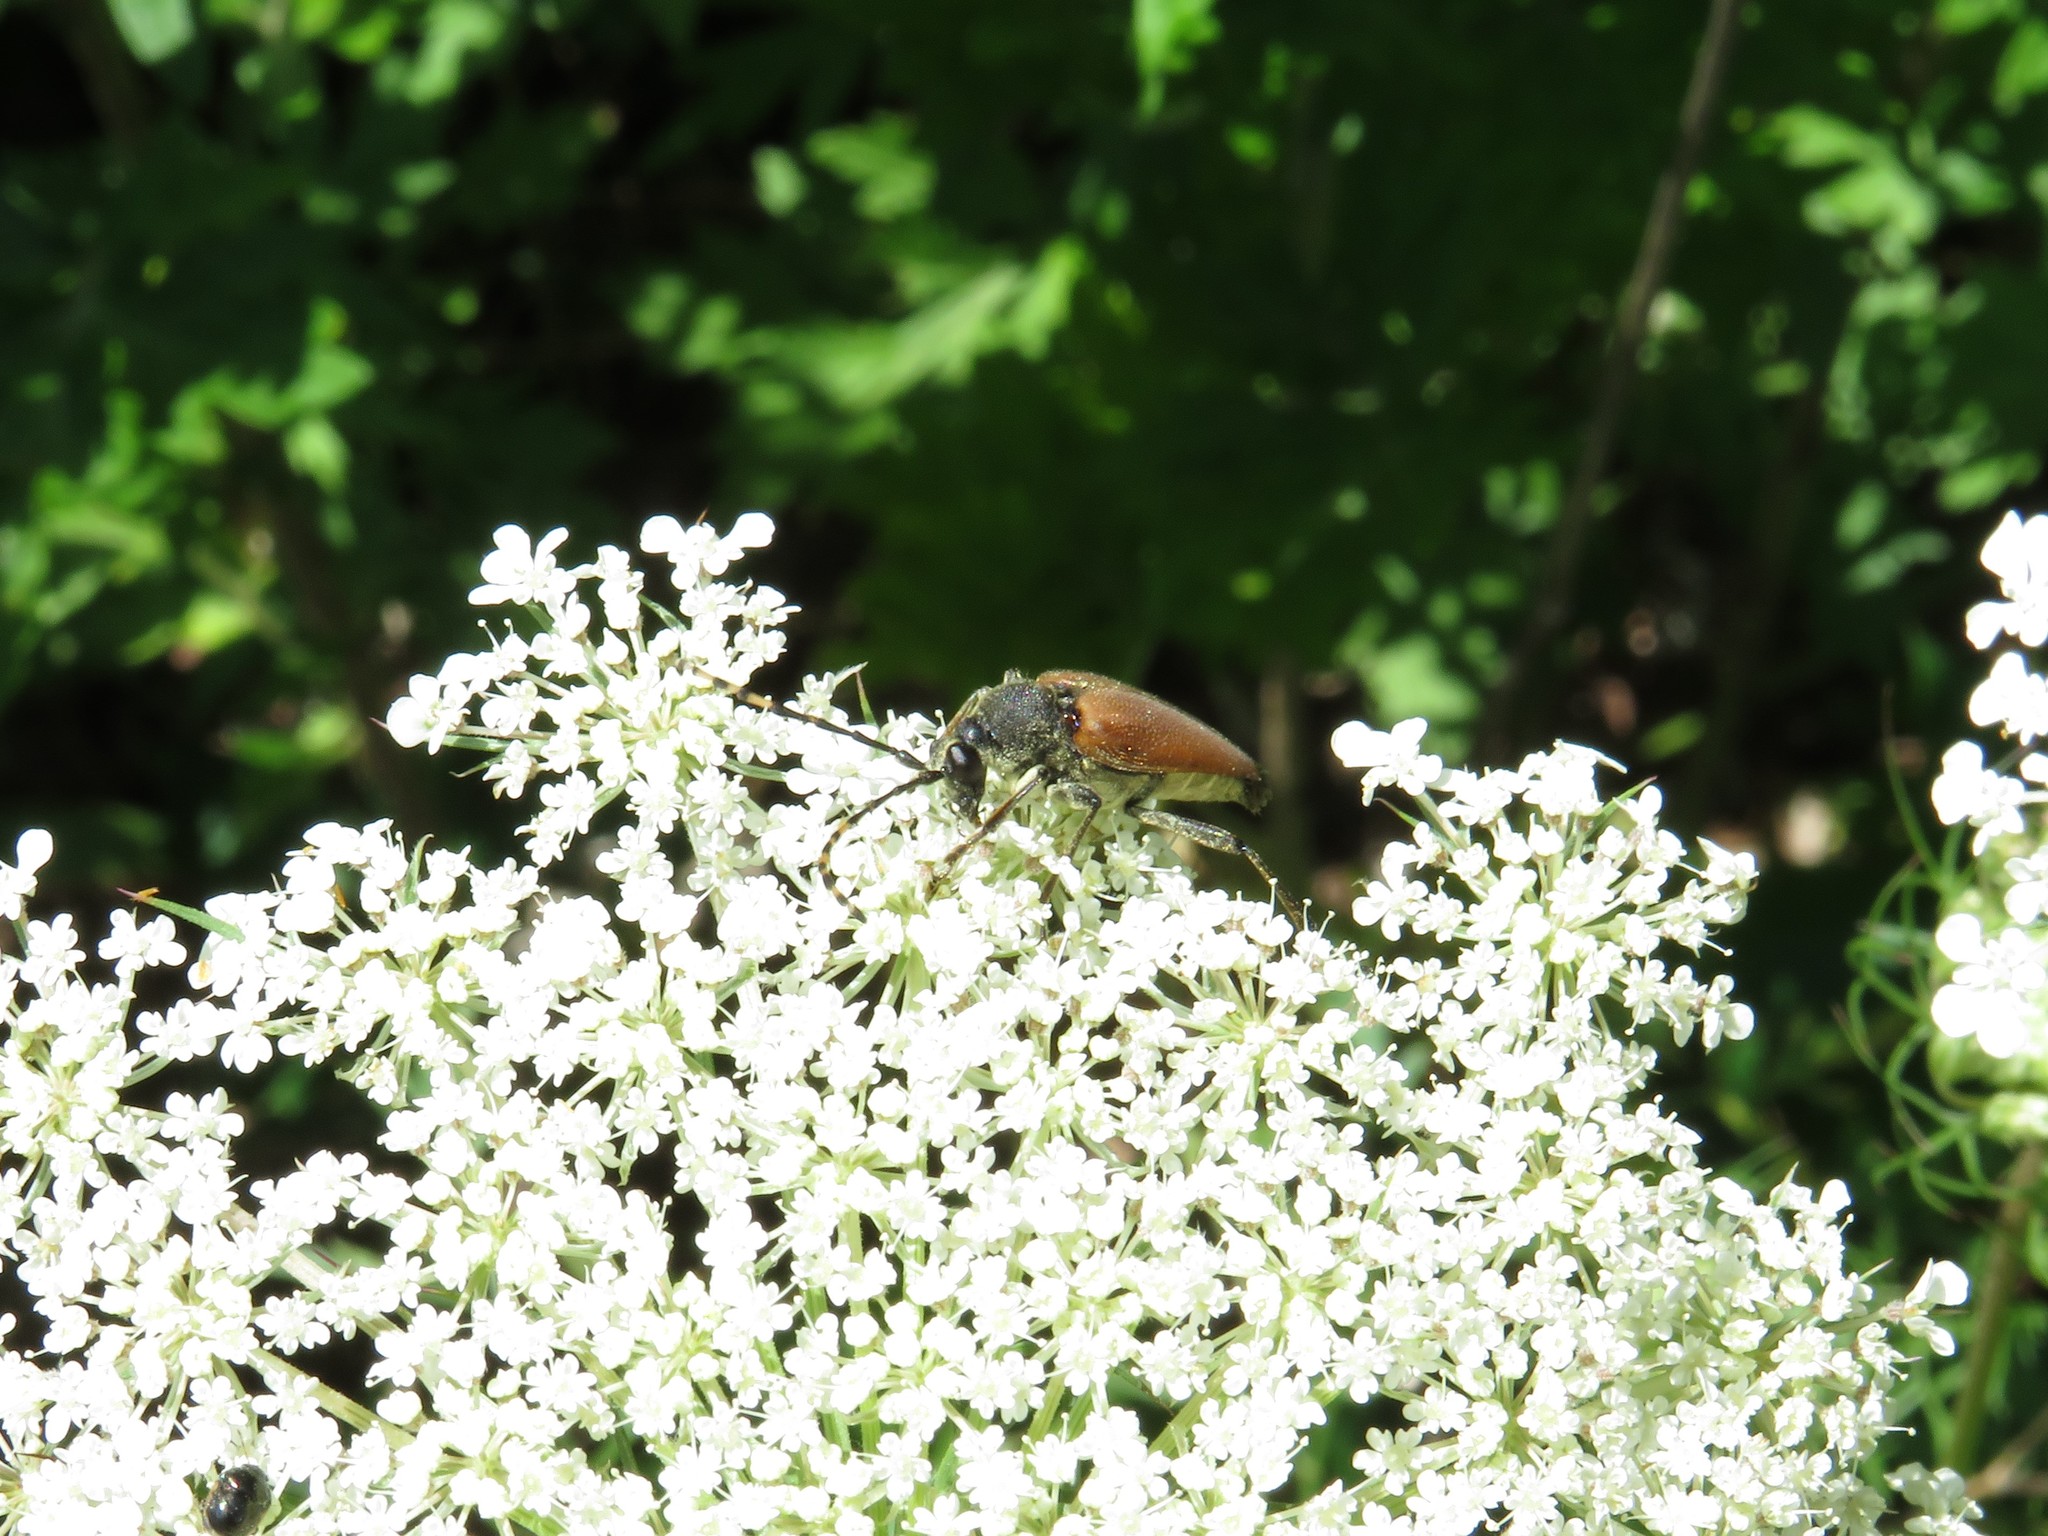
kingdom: Animalia
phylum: Arthropoda
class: Insecta
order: Coleoptera
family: Cerambycidae
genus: Brachyleptura
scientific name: Brachyleptura rubrica
